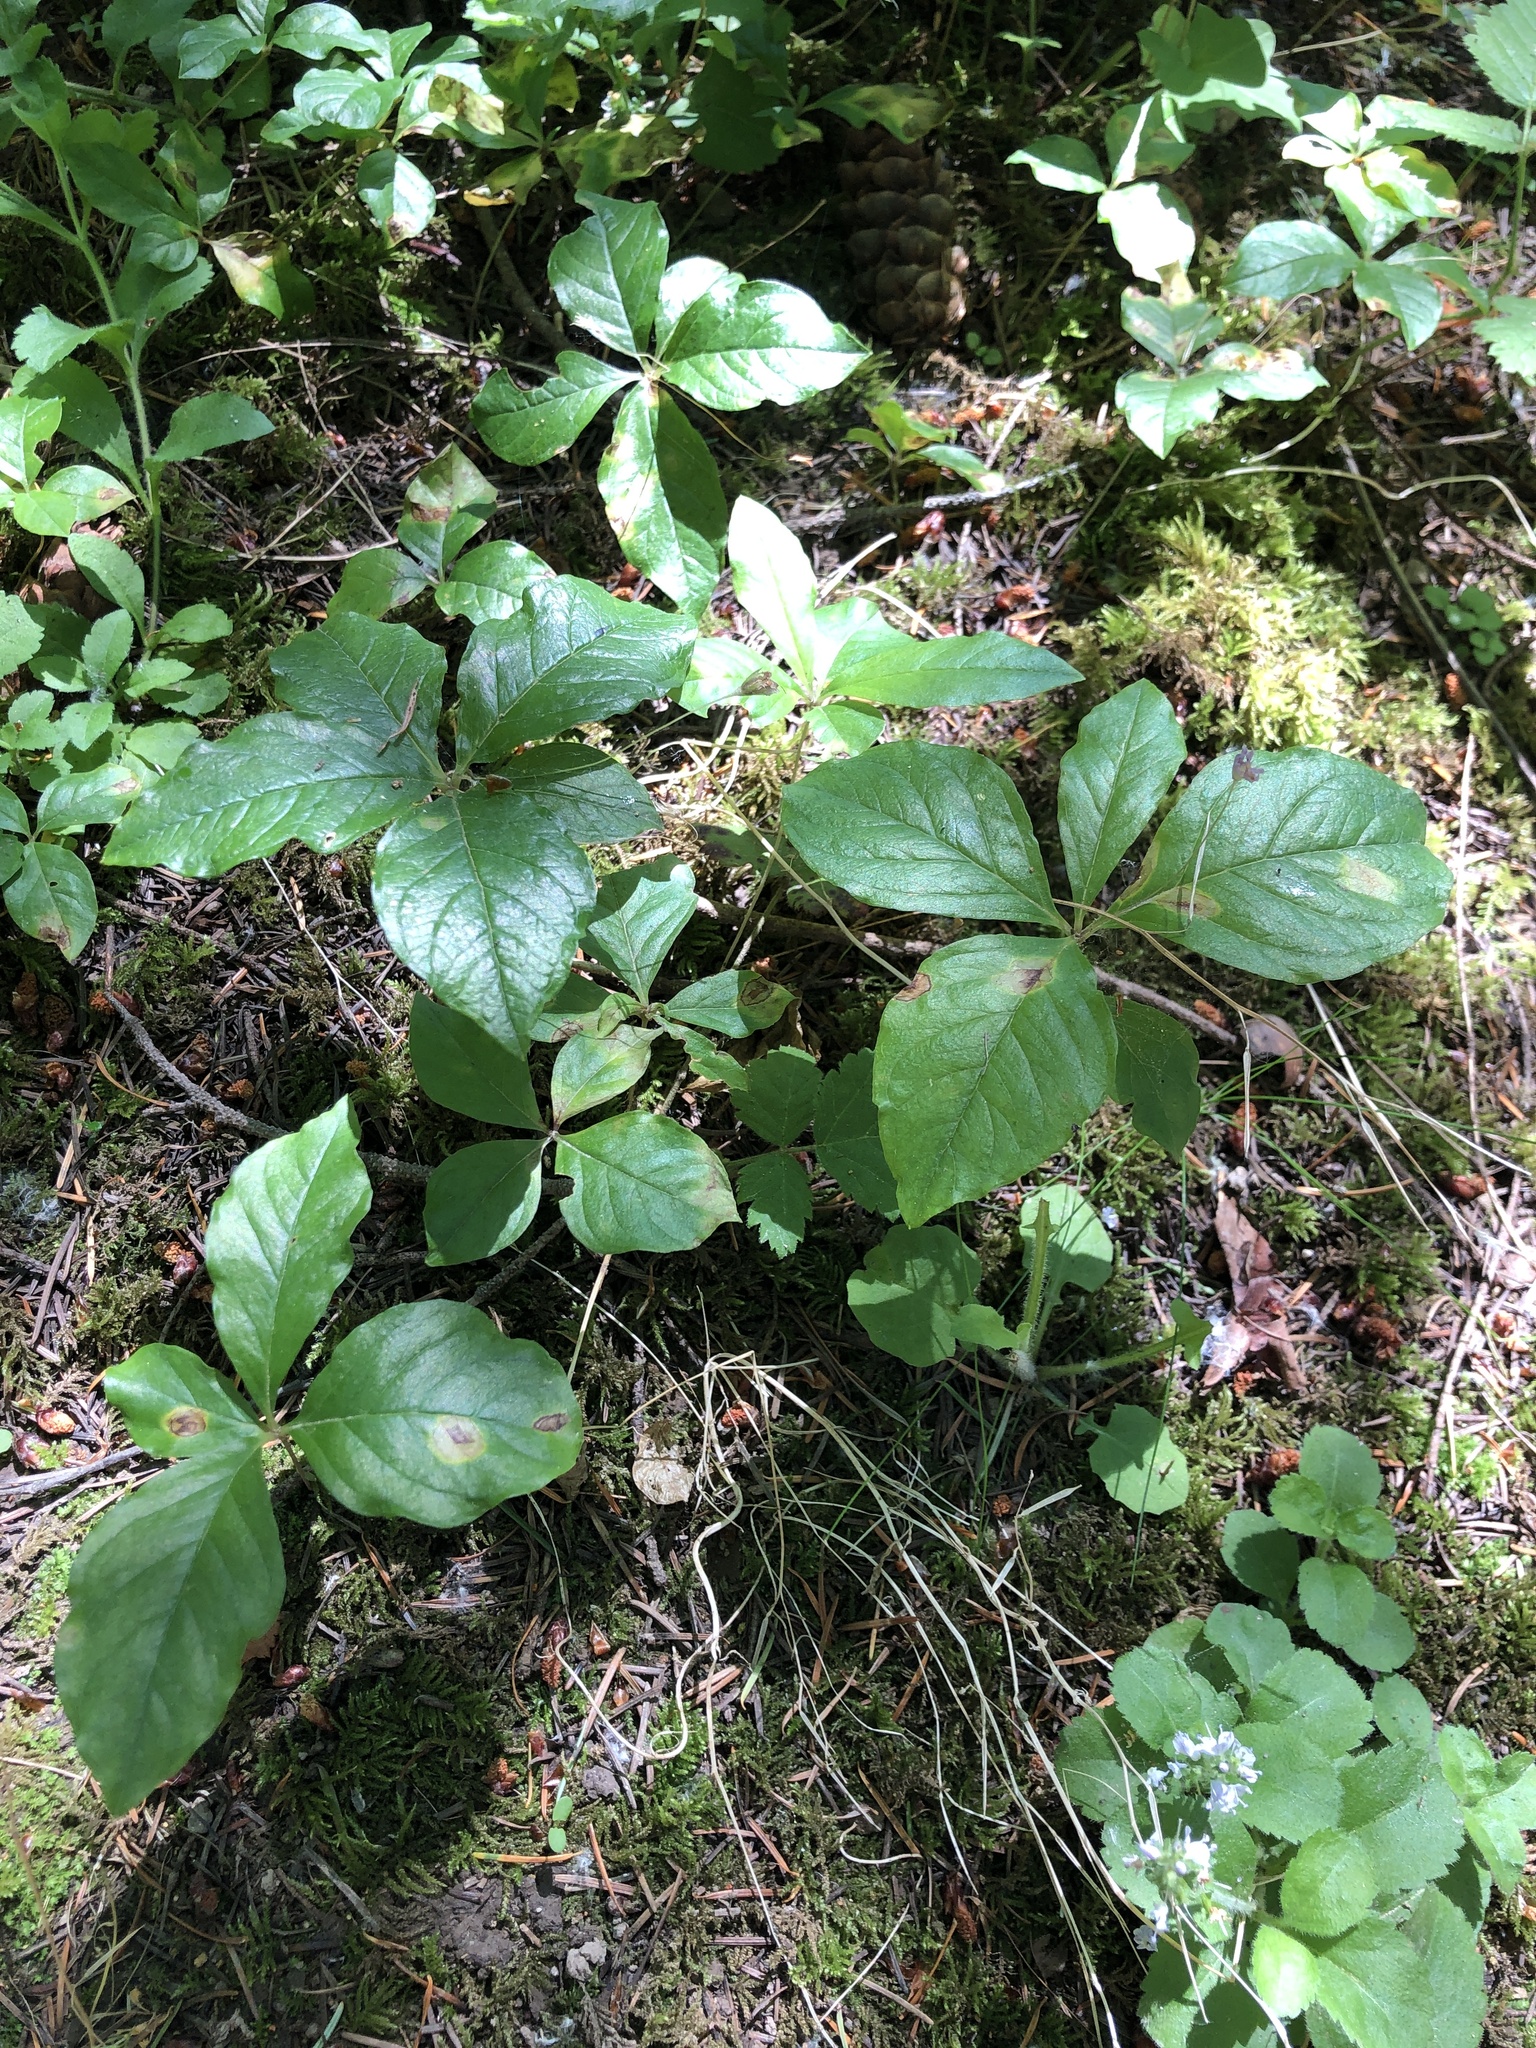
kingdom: Plantae
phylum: Tracheophyta
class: Magnoliopsida
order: Ericales
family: Primulaceae
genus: Lysimachia
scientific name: Lysimachia latifolia
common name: Pacific starflower
